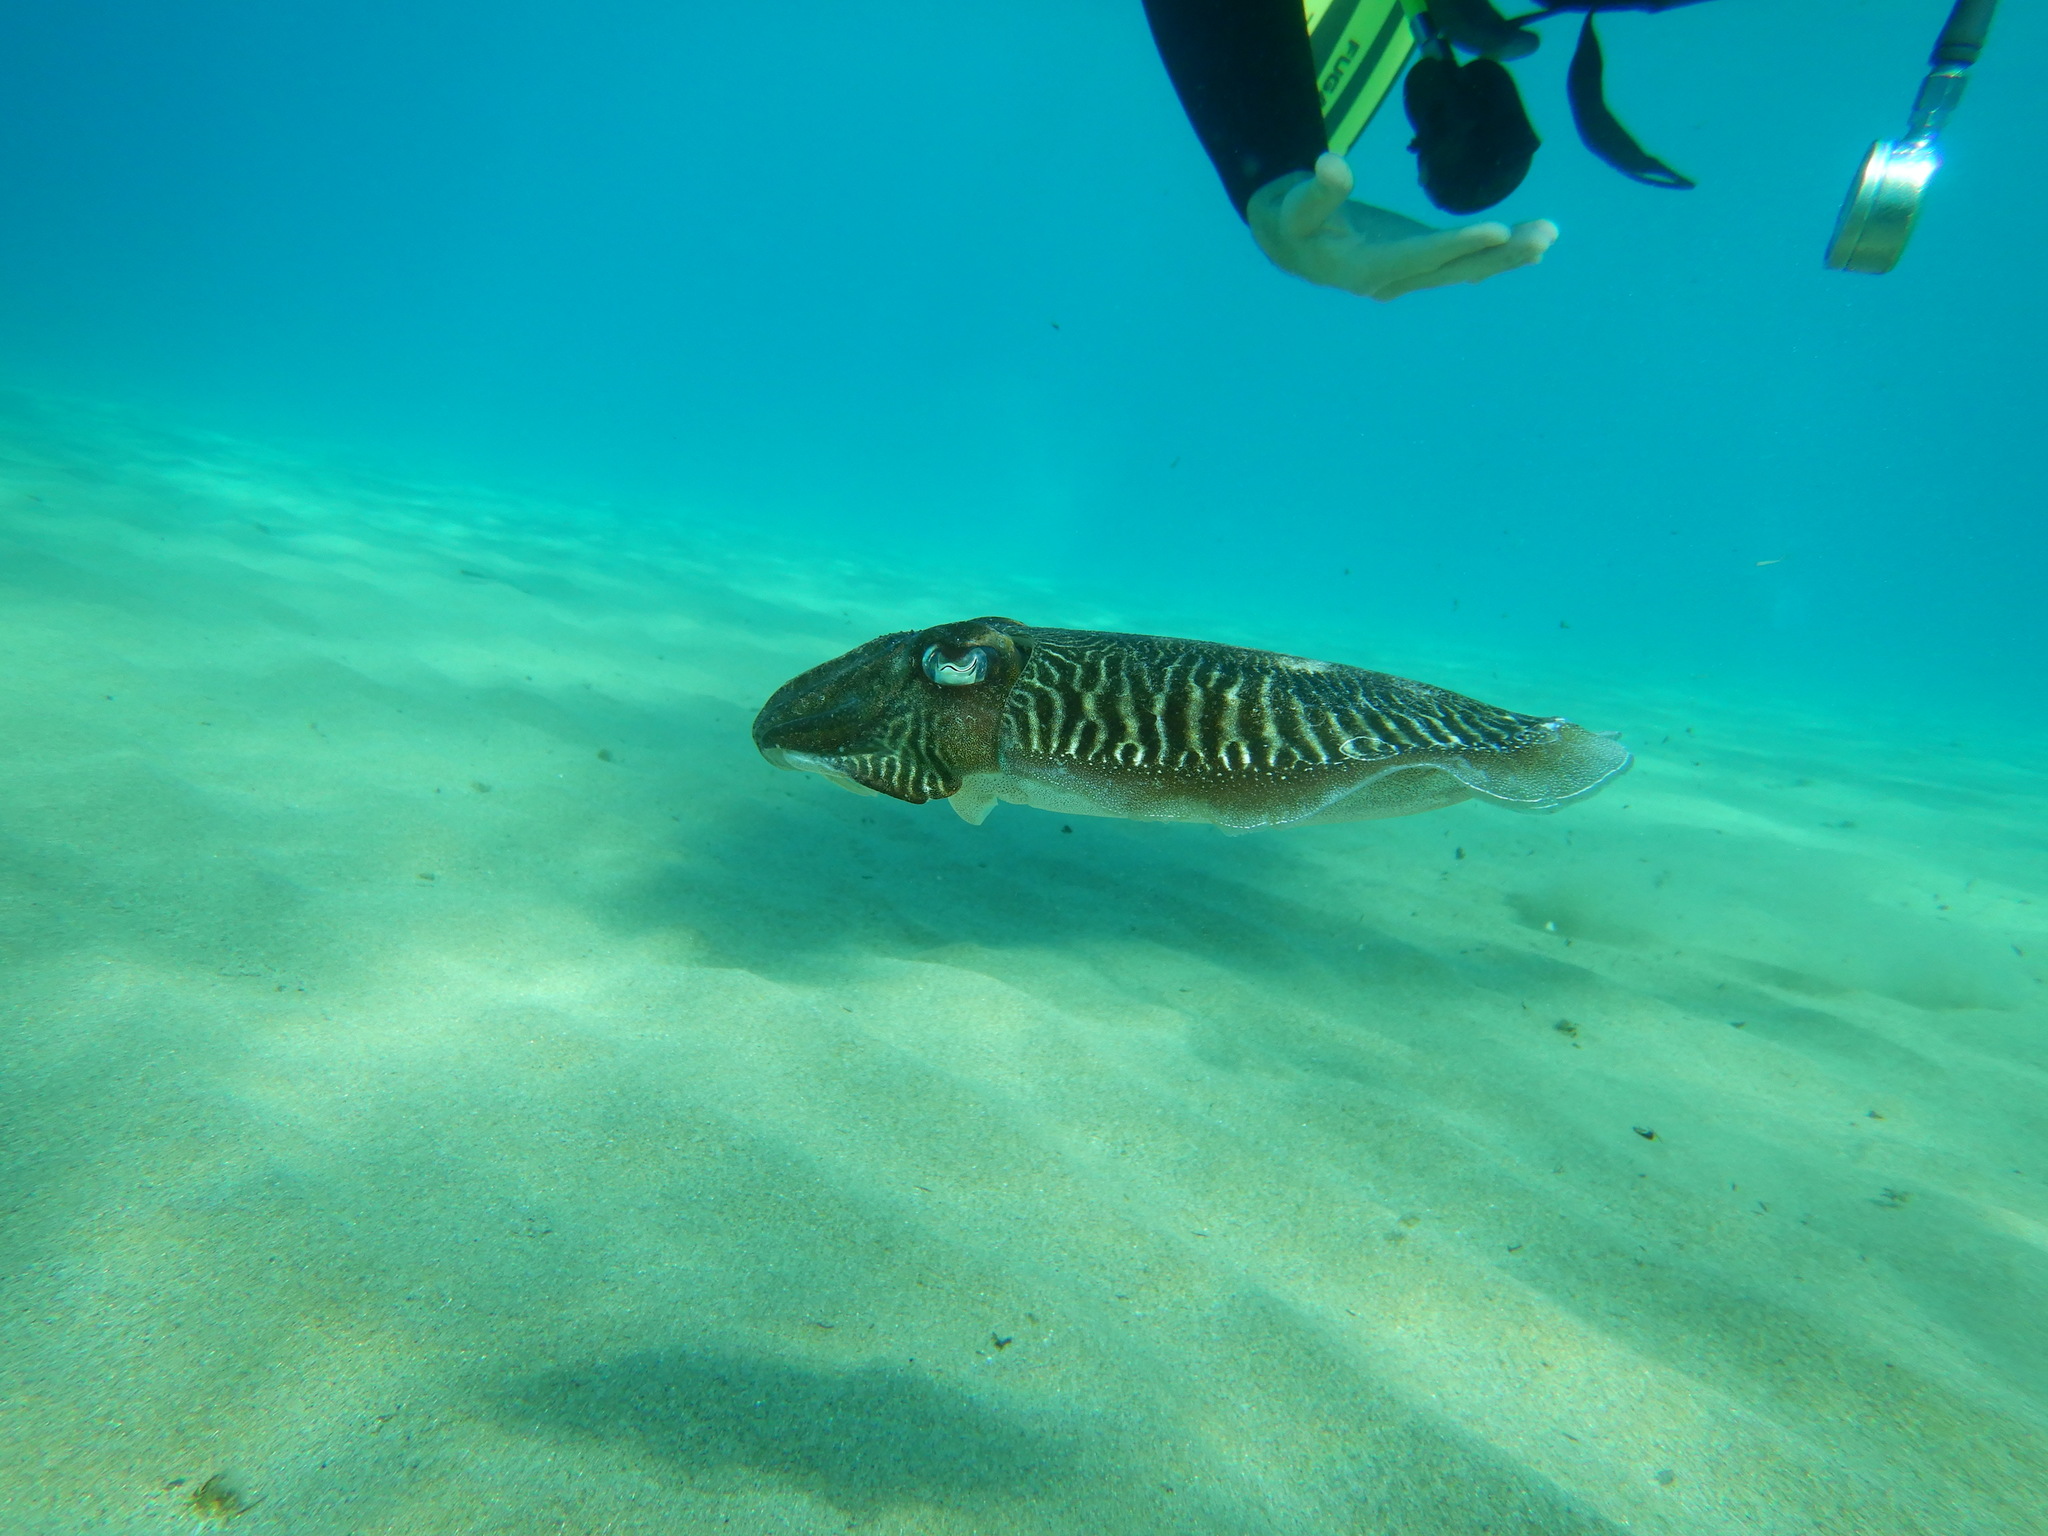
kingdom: Animalia
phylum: Mollusca
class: Cephalopoda
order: Sepiida
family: Sepiidae
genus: Sepia
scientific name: Sepia officinalis
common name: Common cuttlefish
